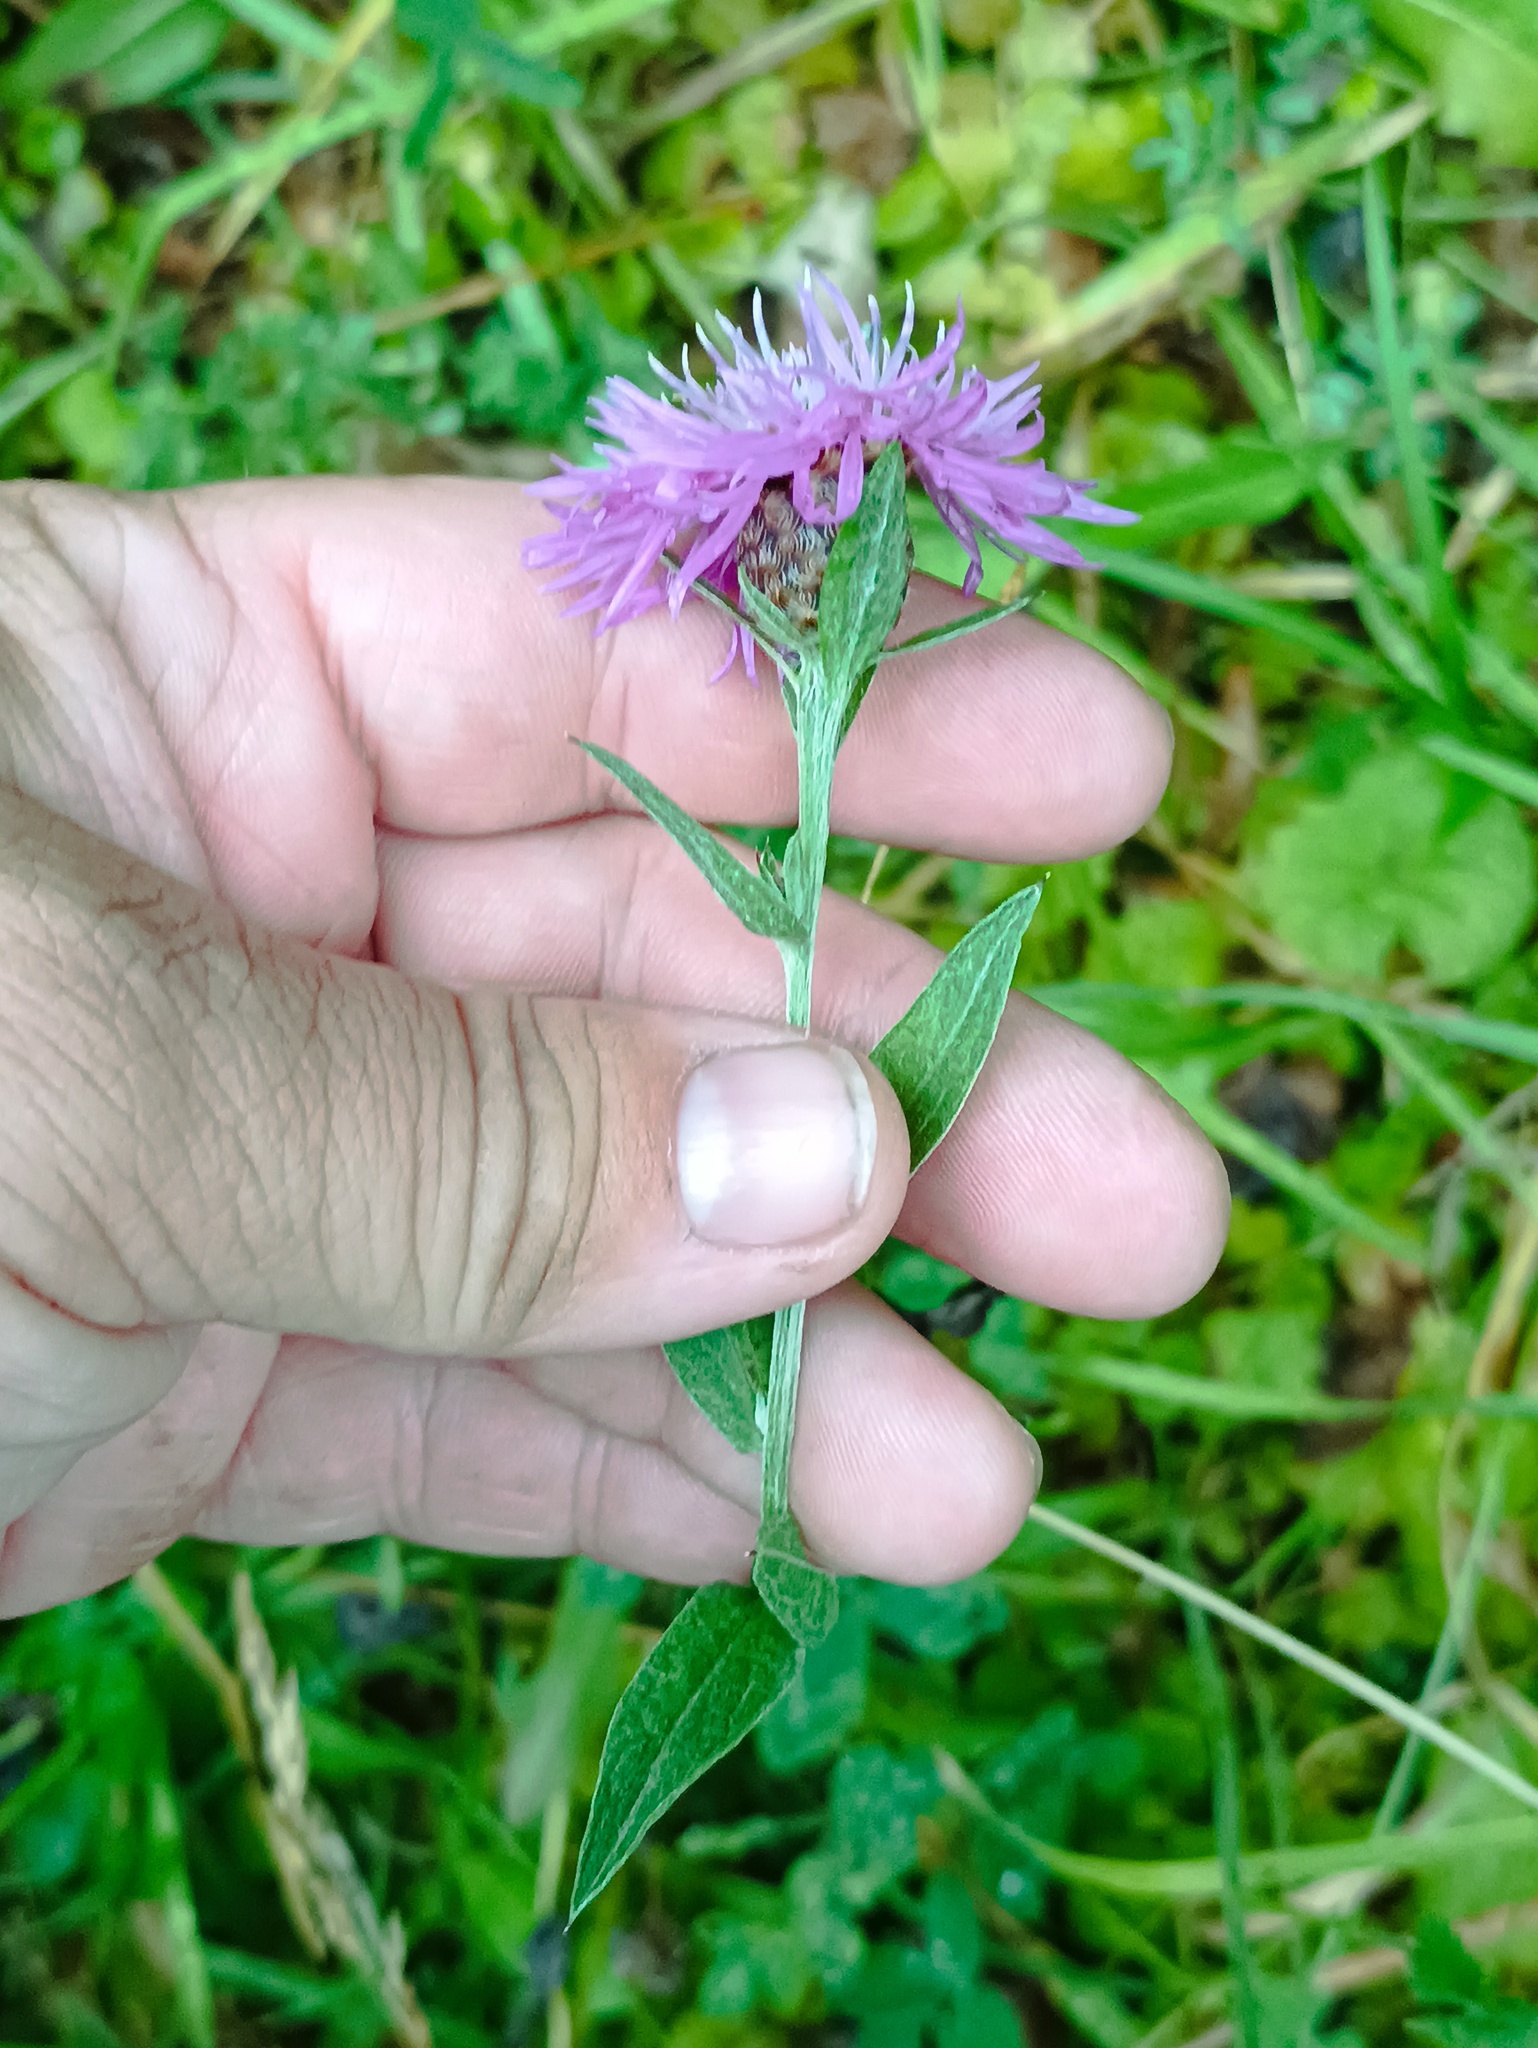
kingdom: Plantae
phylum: Tracheophyta
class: Magnoliopsida
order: Asterales
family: Asteraceae
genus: Centaurea
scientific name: Centaurea jacea
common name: Brown knapweed
